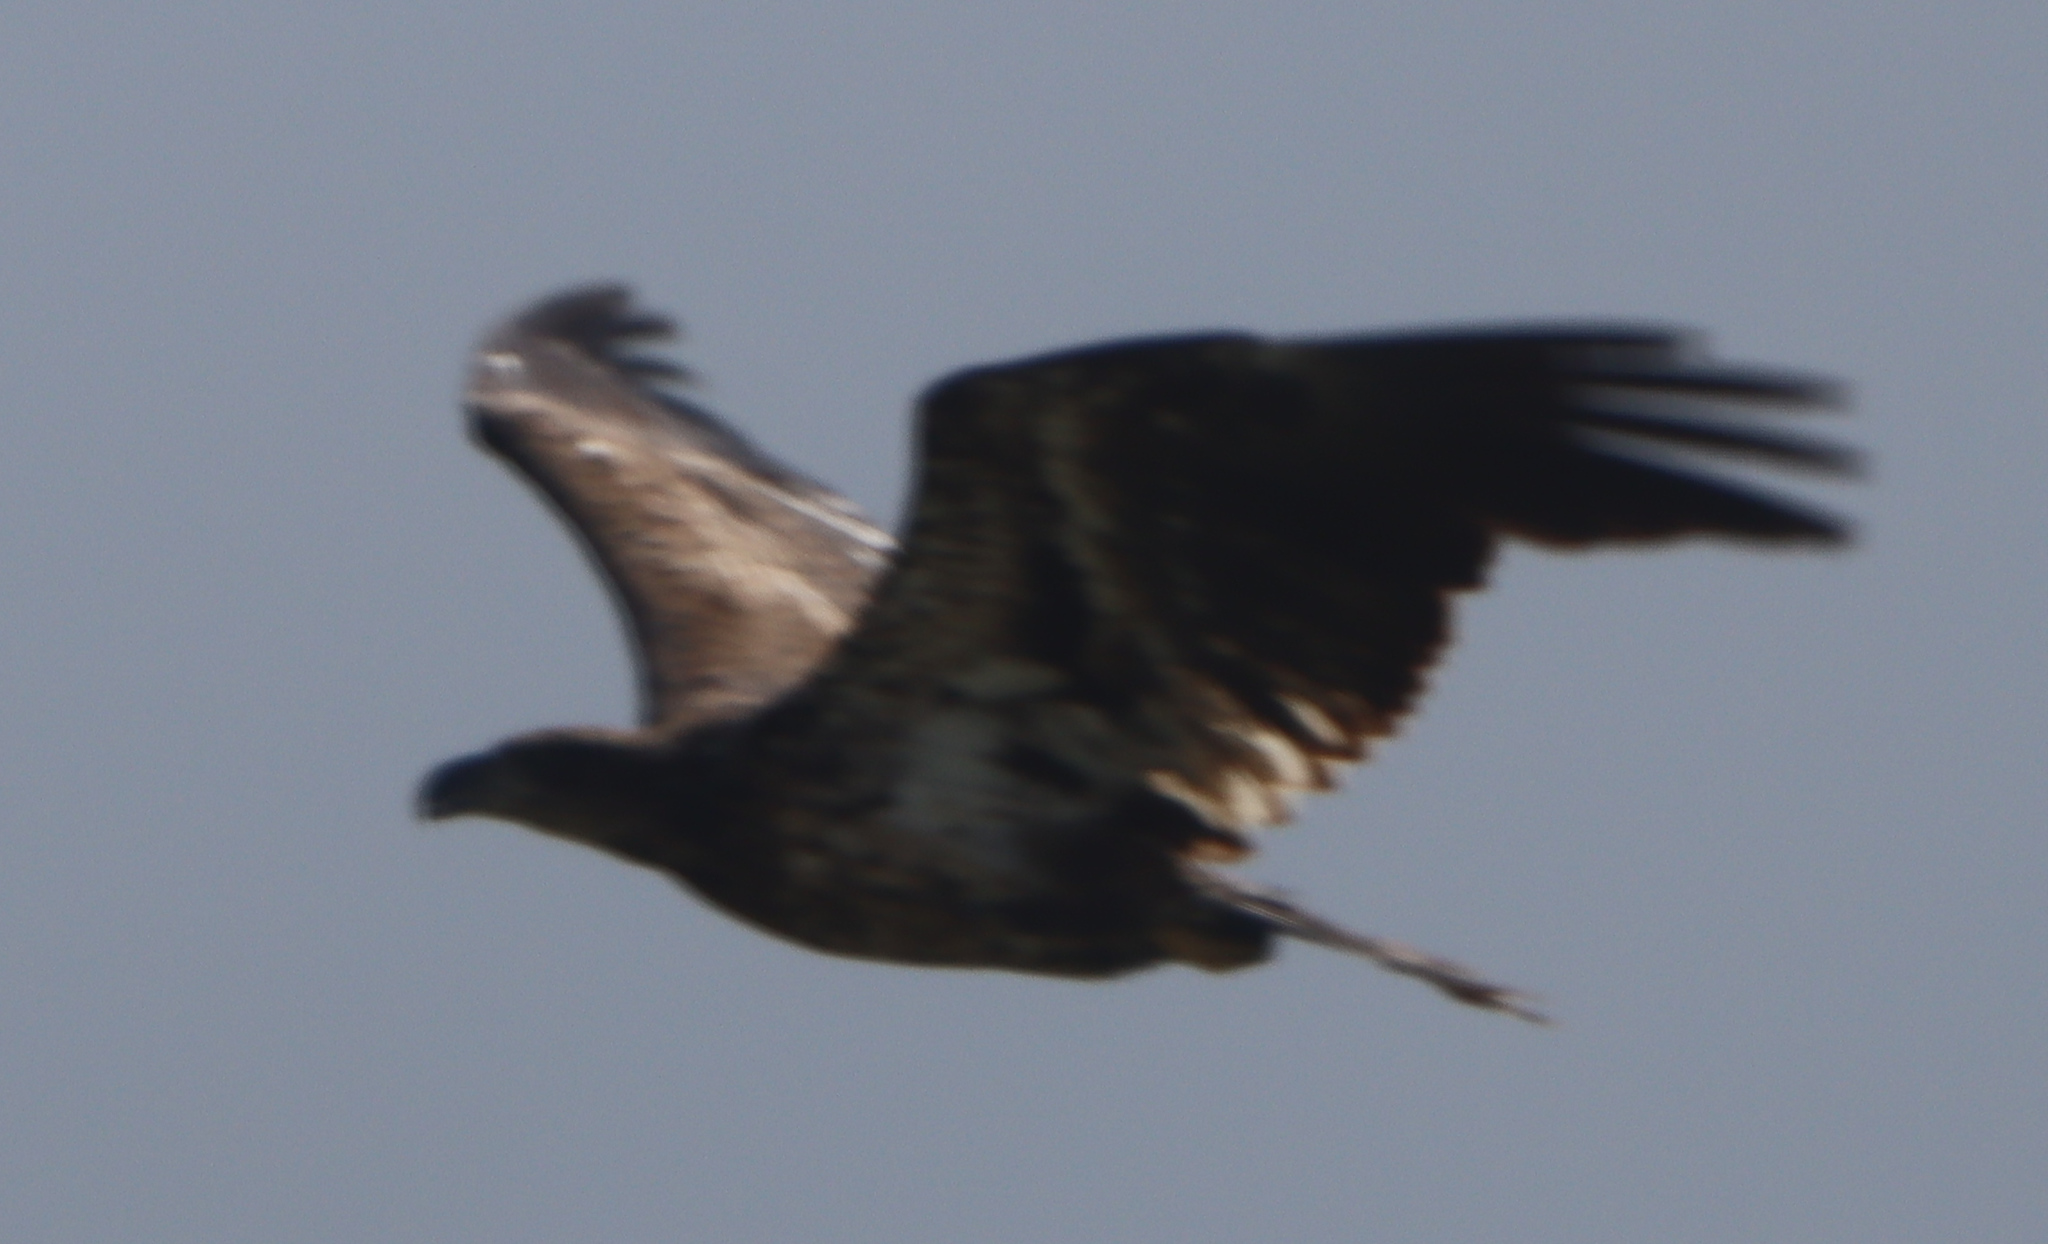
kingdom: Animalia
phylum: Chordata
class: Aves
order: Accipitriformes
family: Accipitridae
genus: Haliaeetus
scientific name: Haliaeetus leucocephalus
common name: Bald eagle
